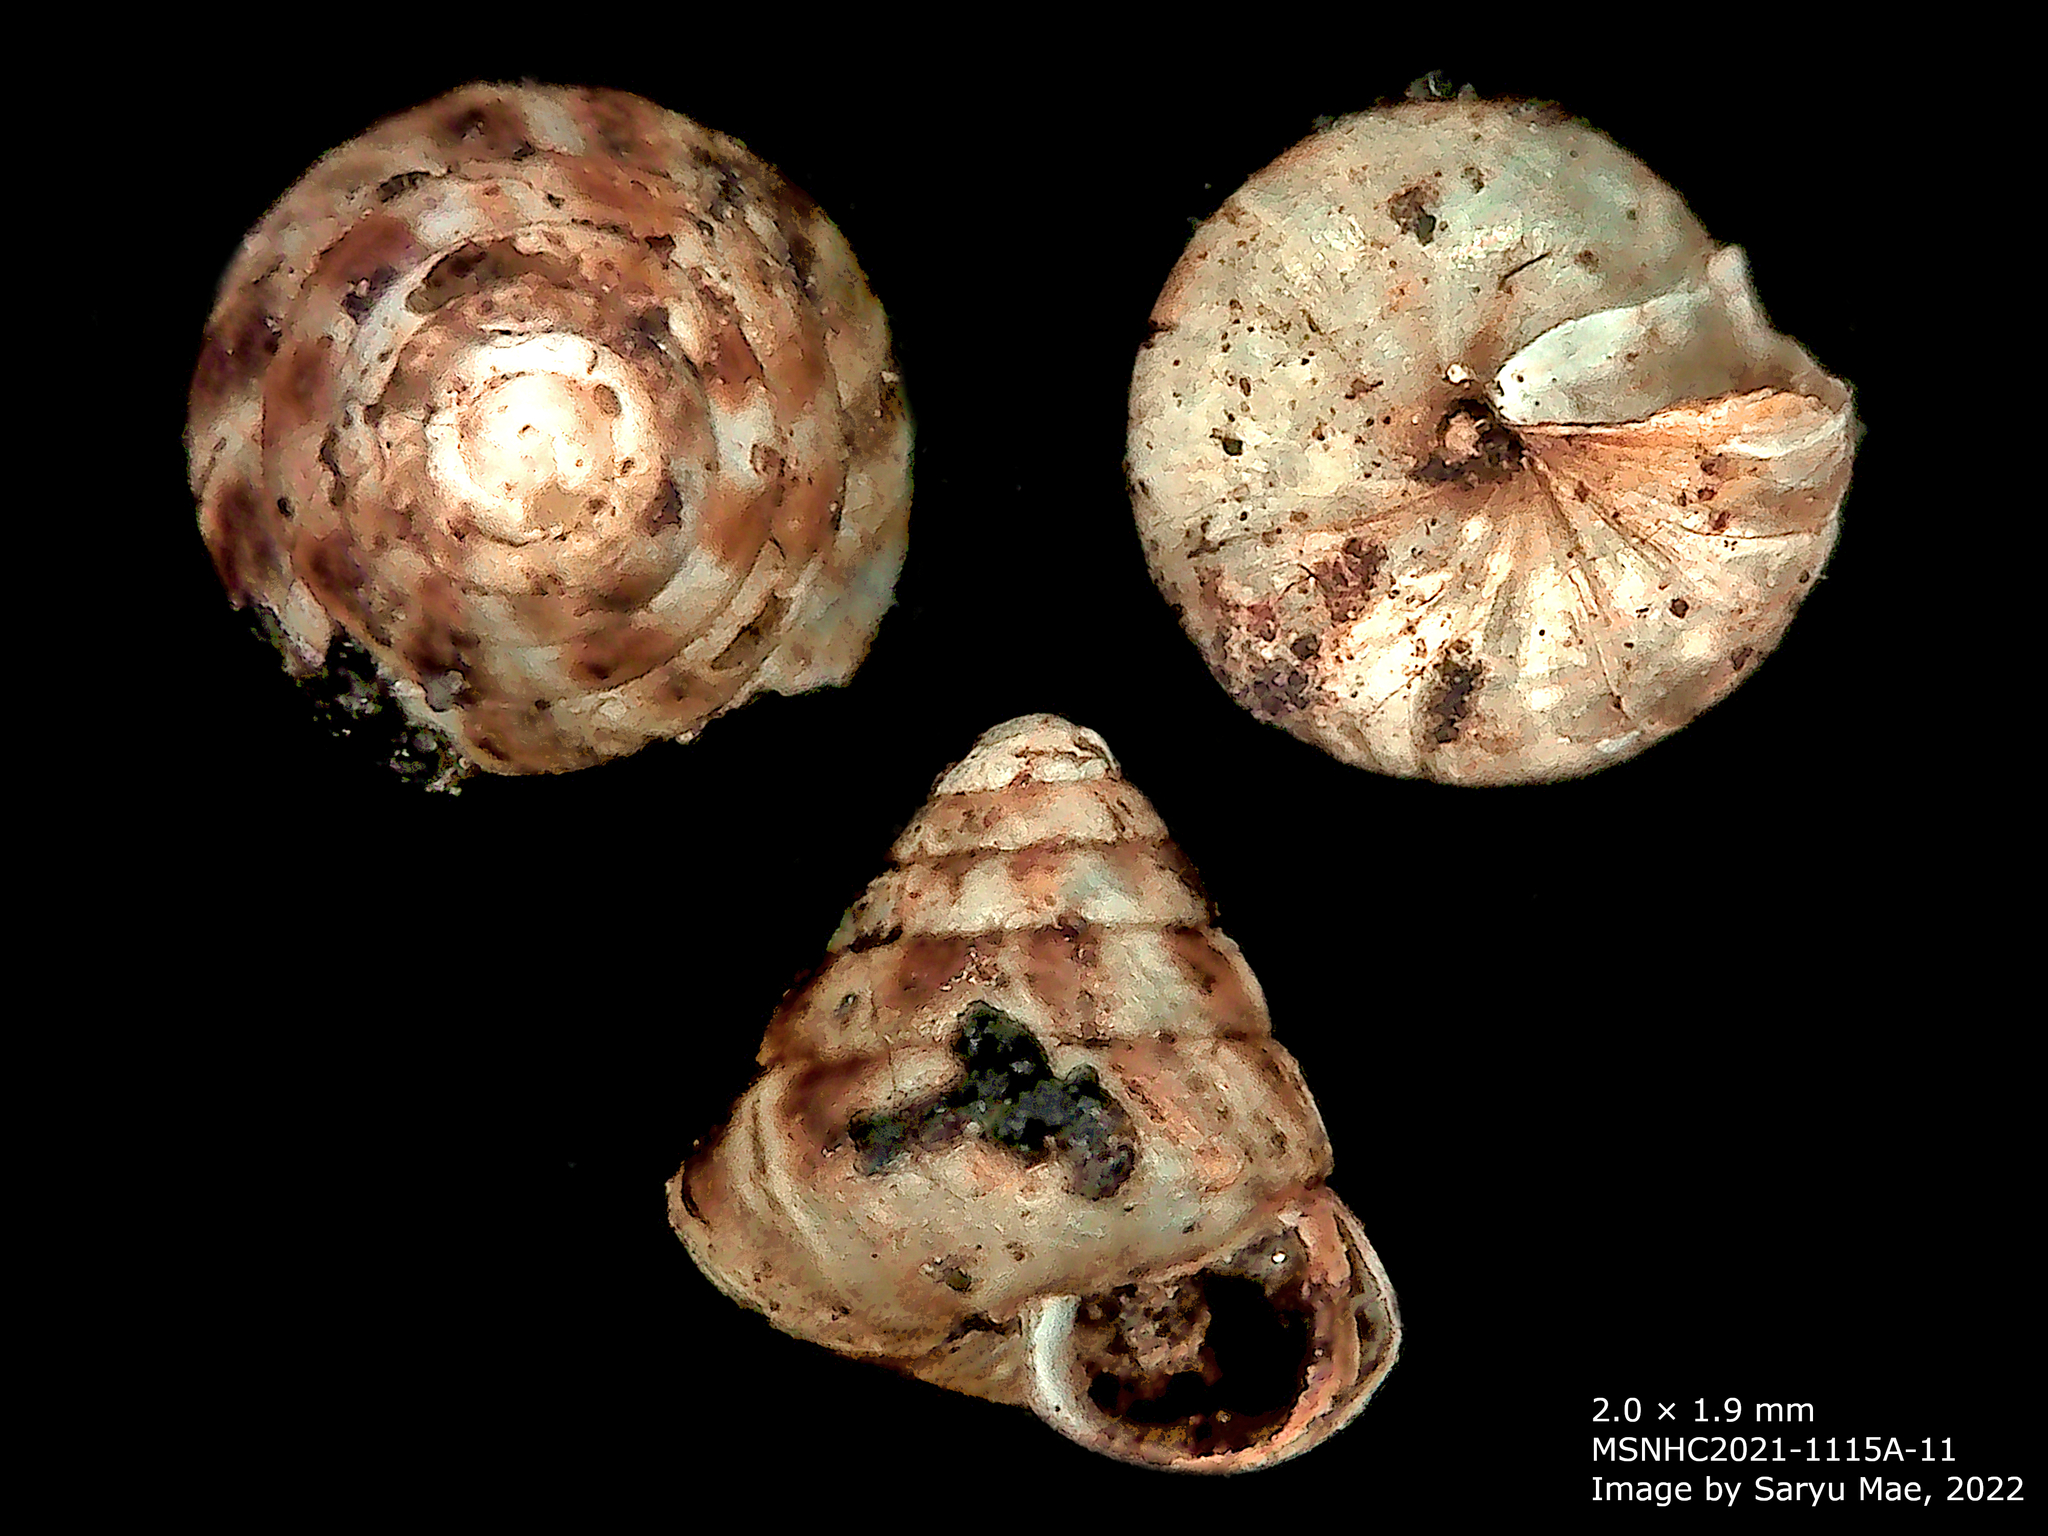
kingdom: Animalia
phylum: Mollusca
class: Gastropoda
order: Stylommatophora
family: Punctidae
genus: Phrixgnathus
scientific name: Phrixgnathus erigone
